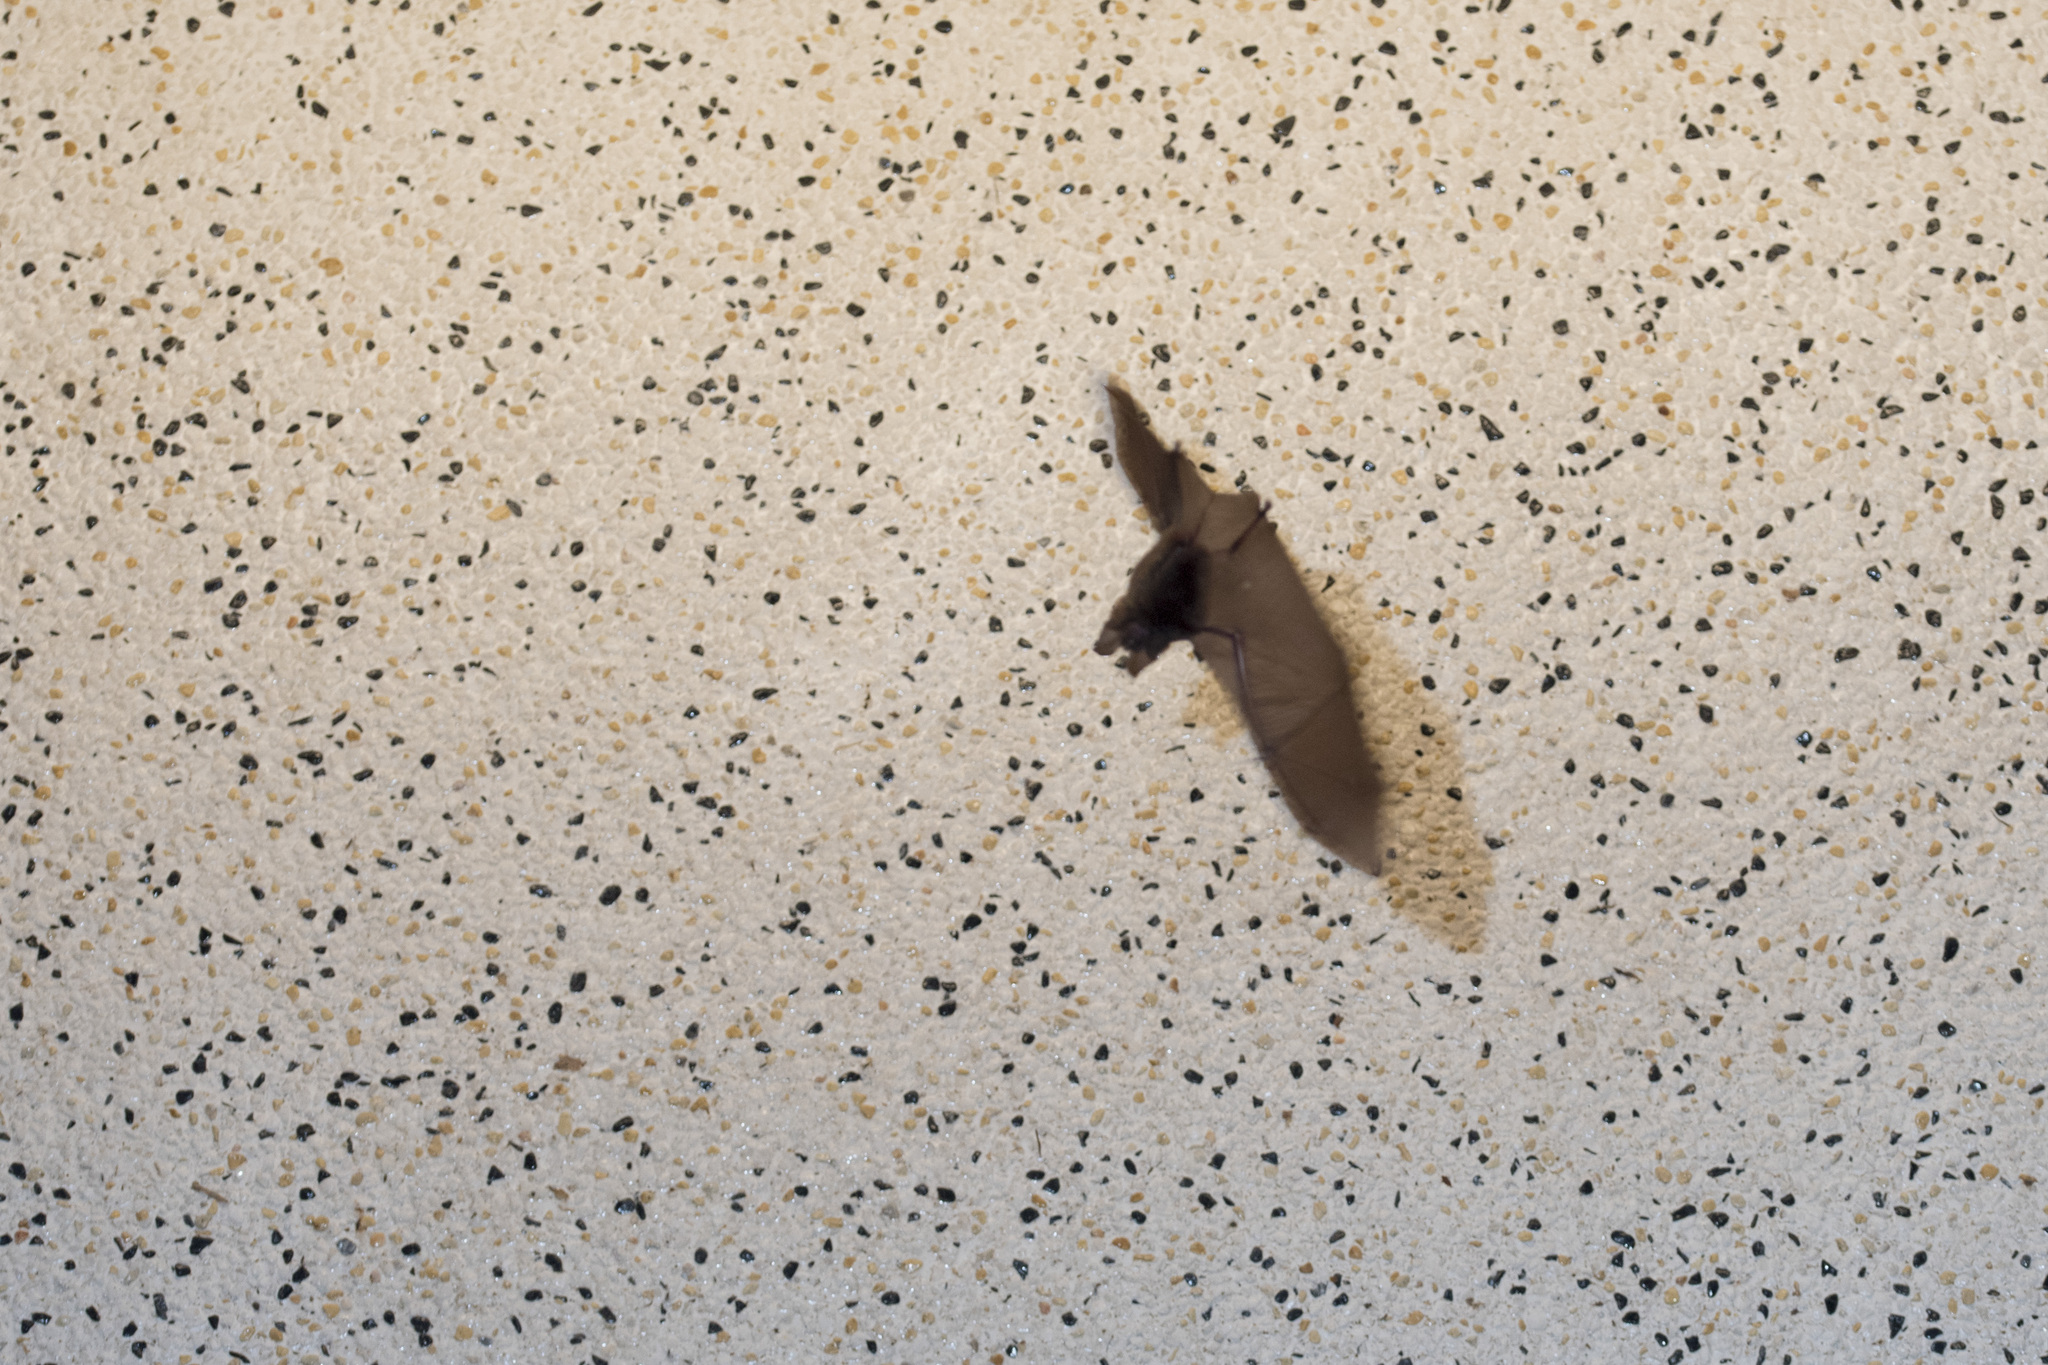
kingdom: Animalia
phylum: Chordata
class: Mammalia
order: Chiroptera
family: Rhinolophidae
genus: Rhinolophus
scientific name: Rhinolophus monoceros
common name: Formosan lesser horseshoe bat
